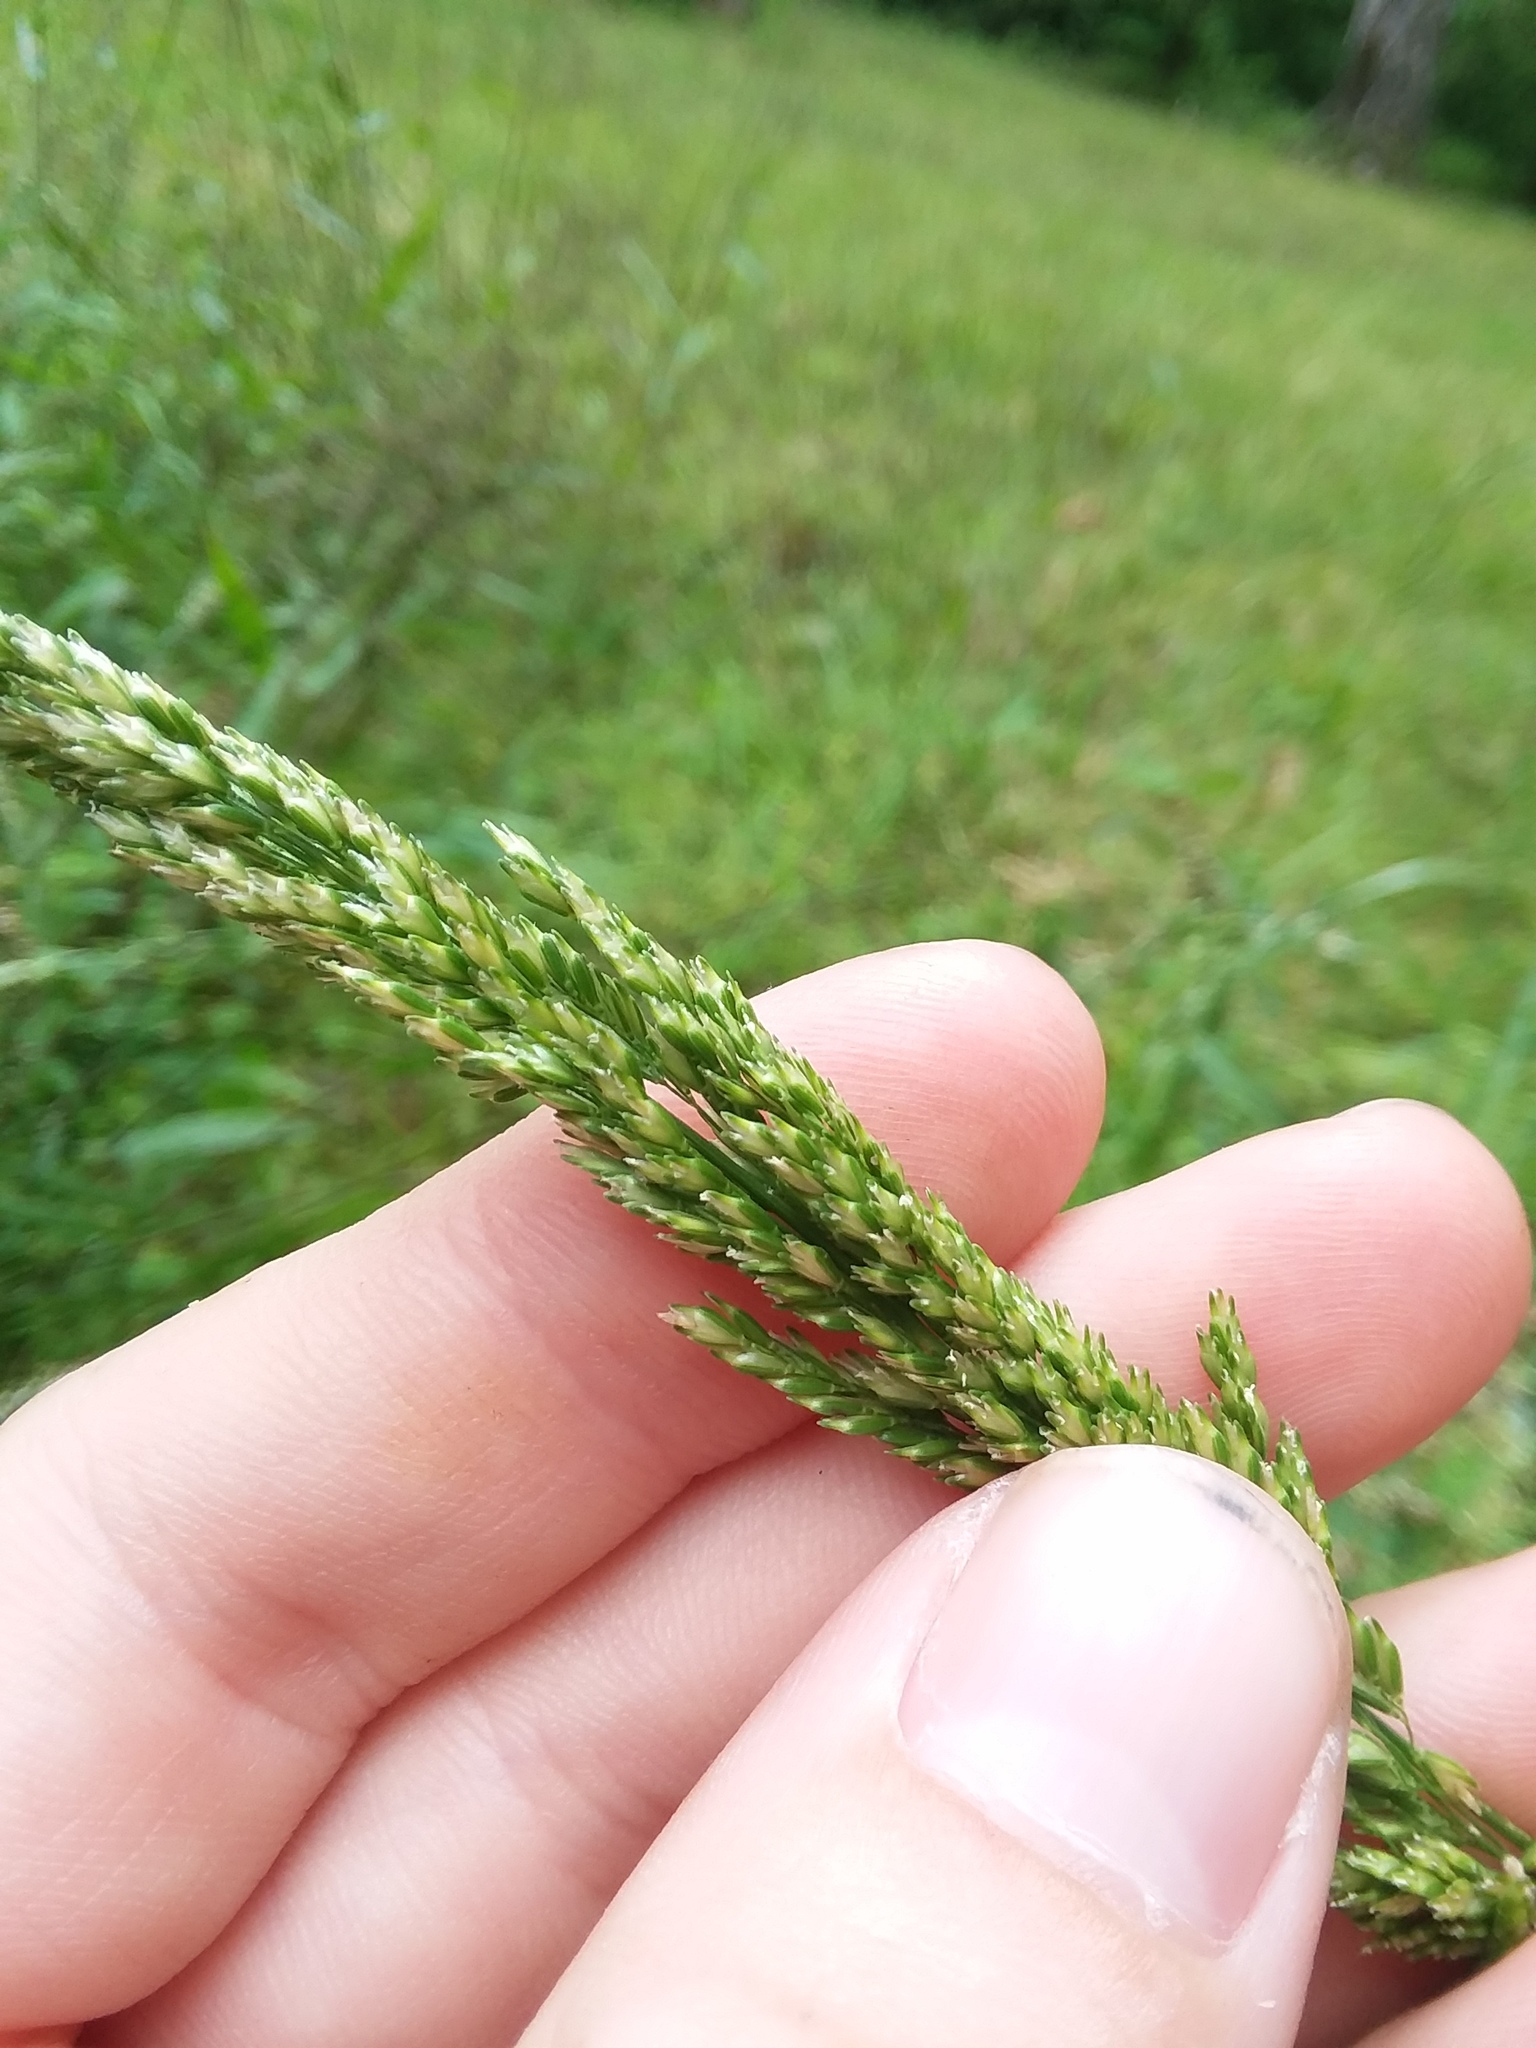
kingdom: Plantae
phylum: Tracheophyta
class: Liliopsida
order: Poales
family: Poaceae
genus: Sphenopholis
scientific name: Sphenopholis obtusata
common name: Prairie grass
